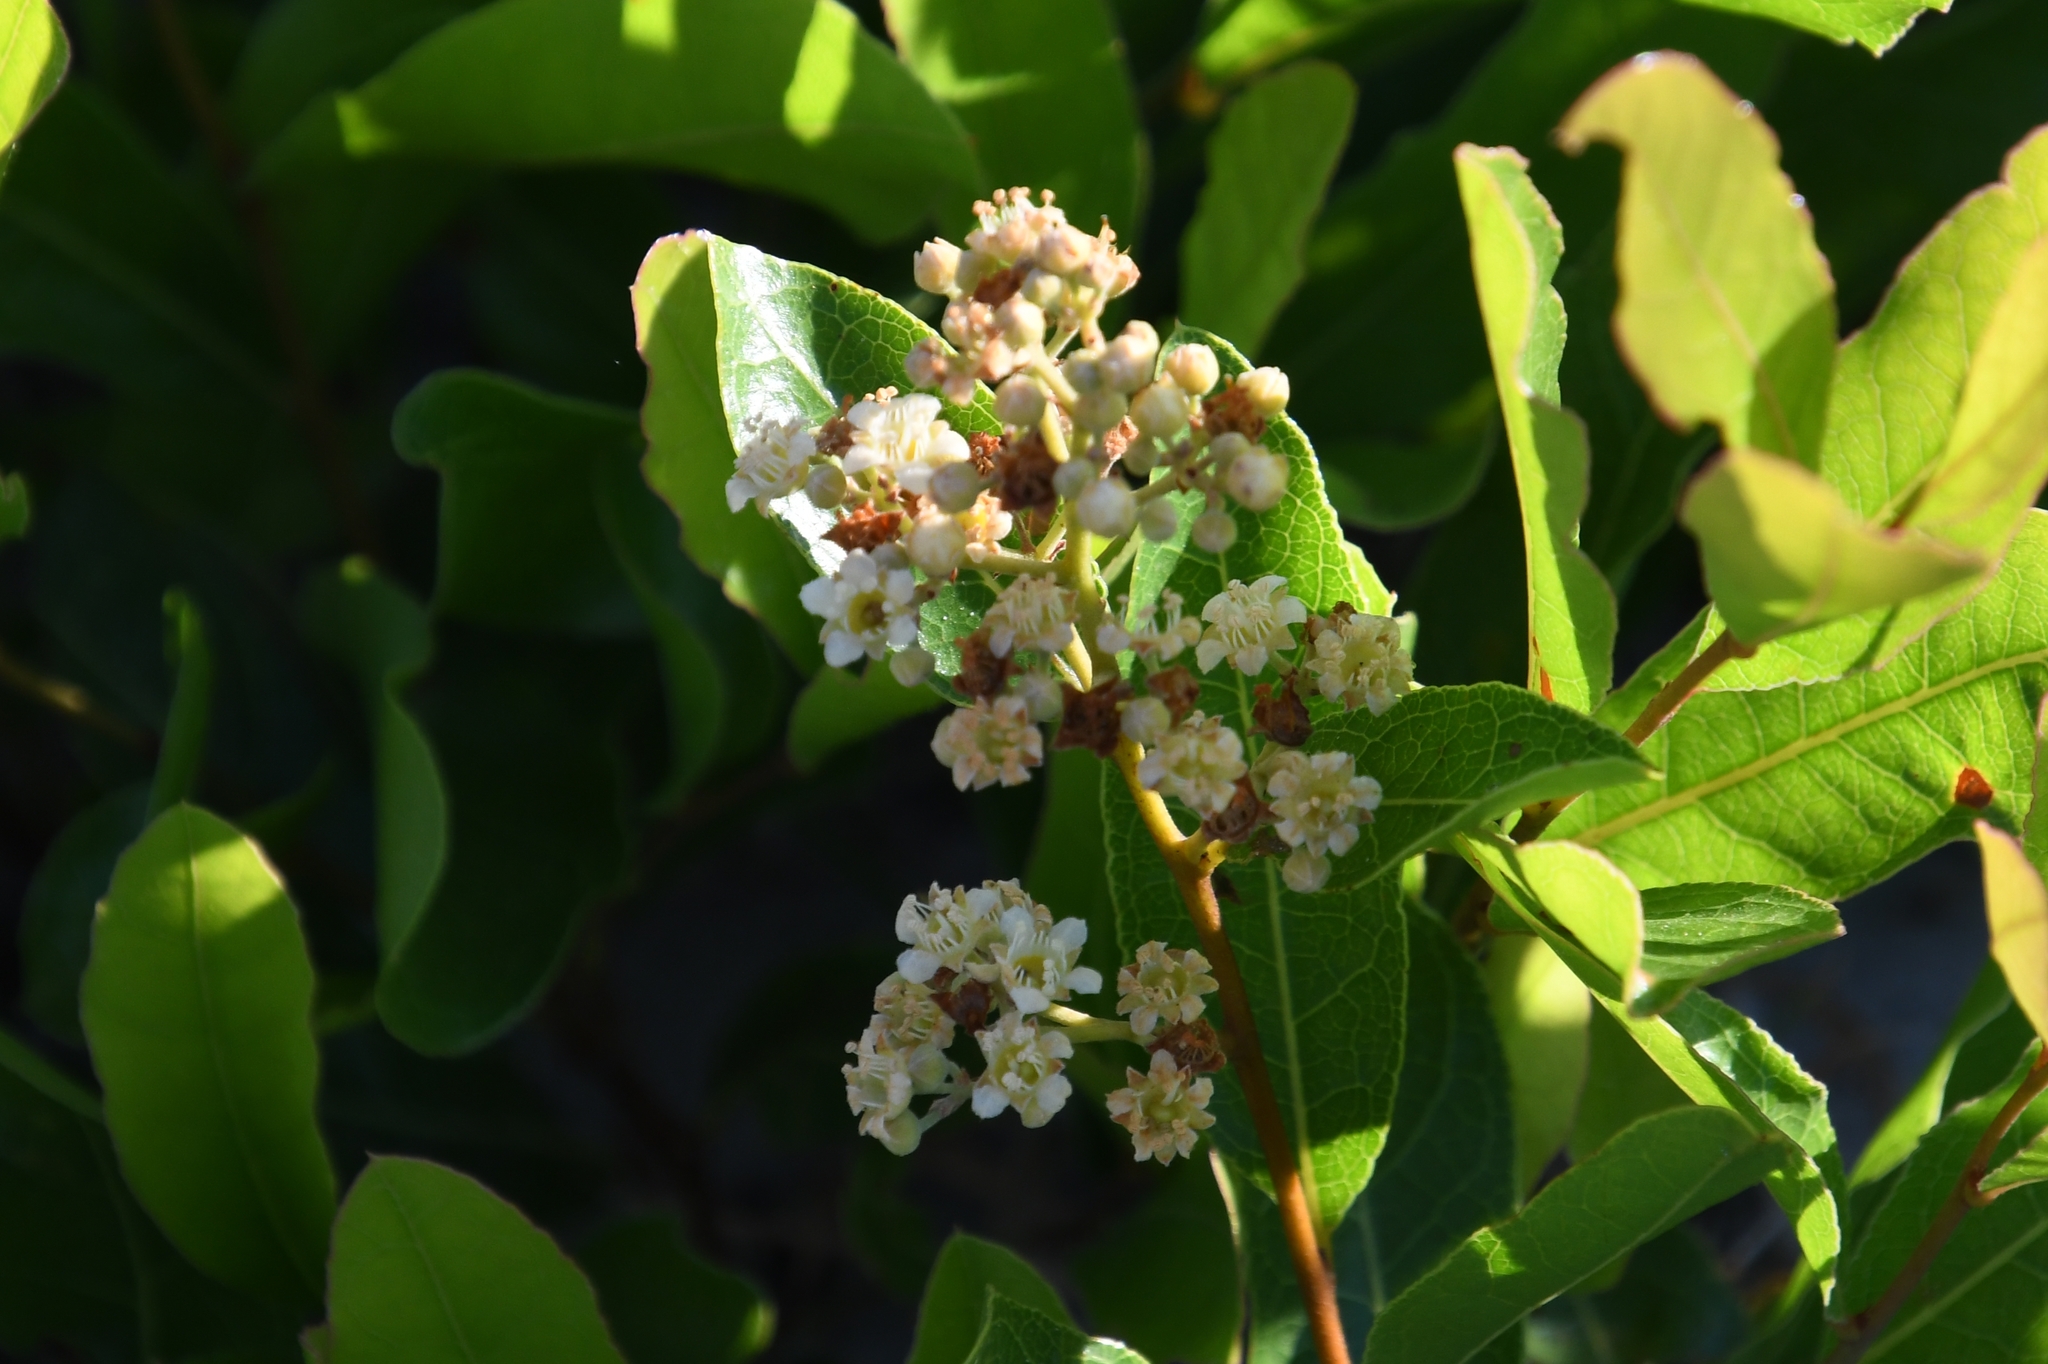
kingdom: Plantae
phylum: Tracheophyta
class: Magnoliopsida
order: Malpighiales
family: Chrysobalanaceae
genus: Geobalanus
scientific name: Geobalanus oblongifolius
